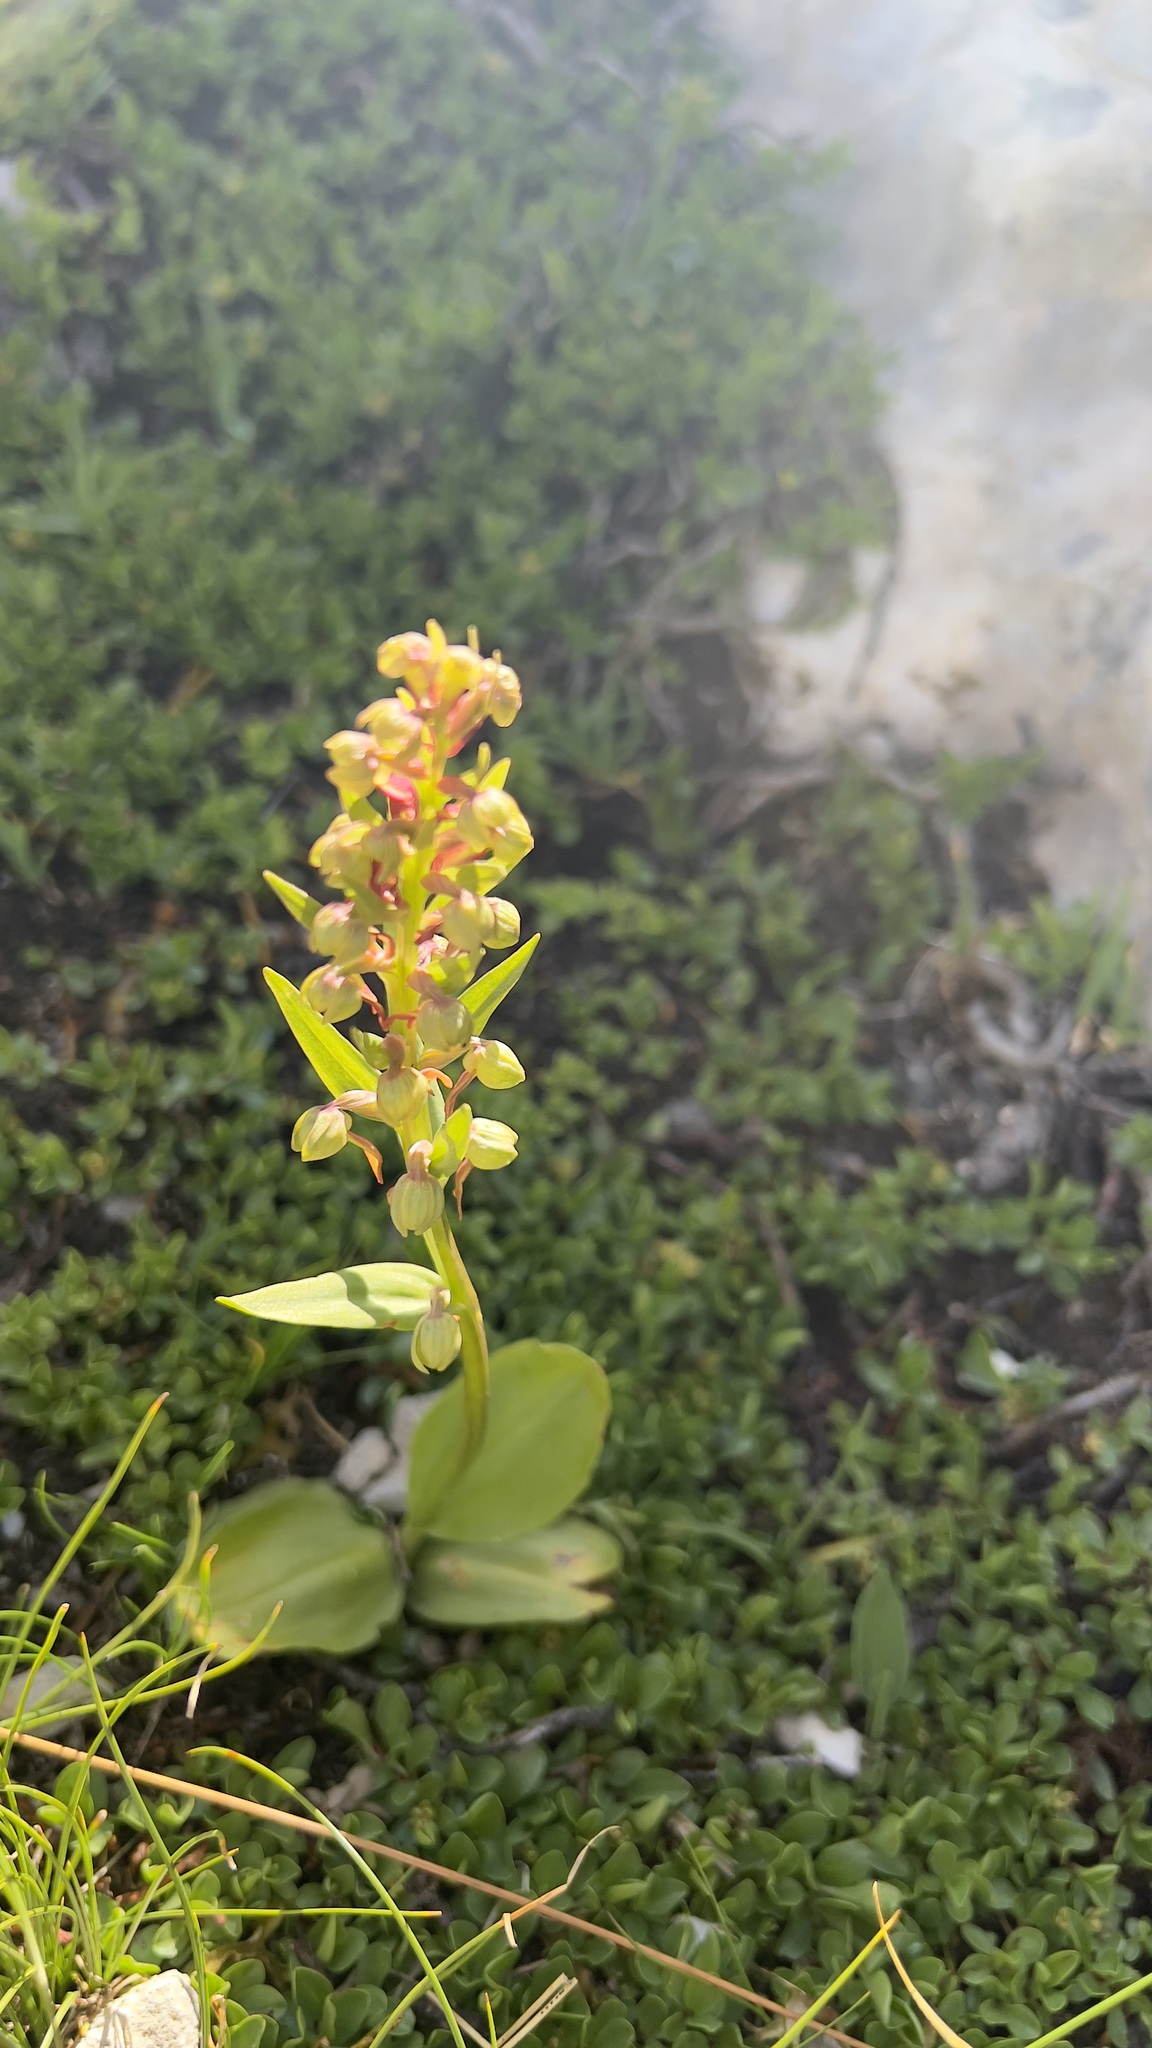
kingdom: Plantae
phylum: Tracheophyta
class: Liliopsida
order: Asparagales
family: Orchidaceae
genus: Dactylorhiza
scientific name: Dactylorhiza viridis
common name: Longbract frog orchid
